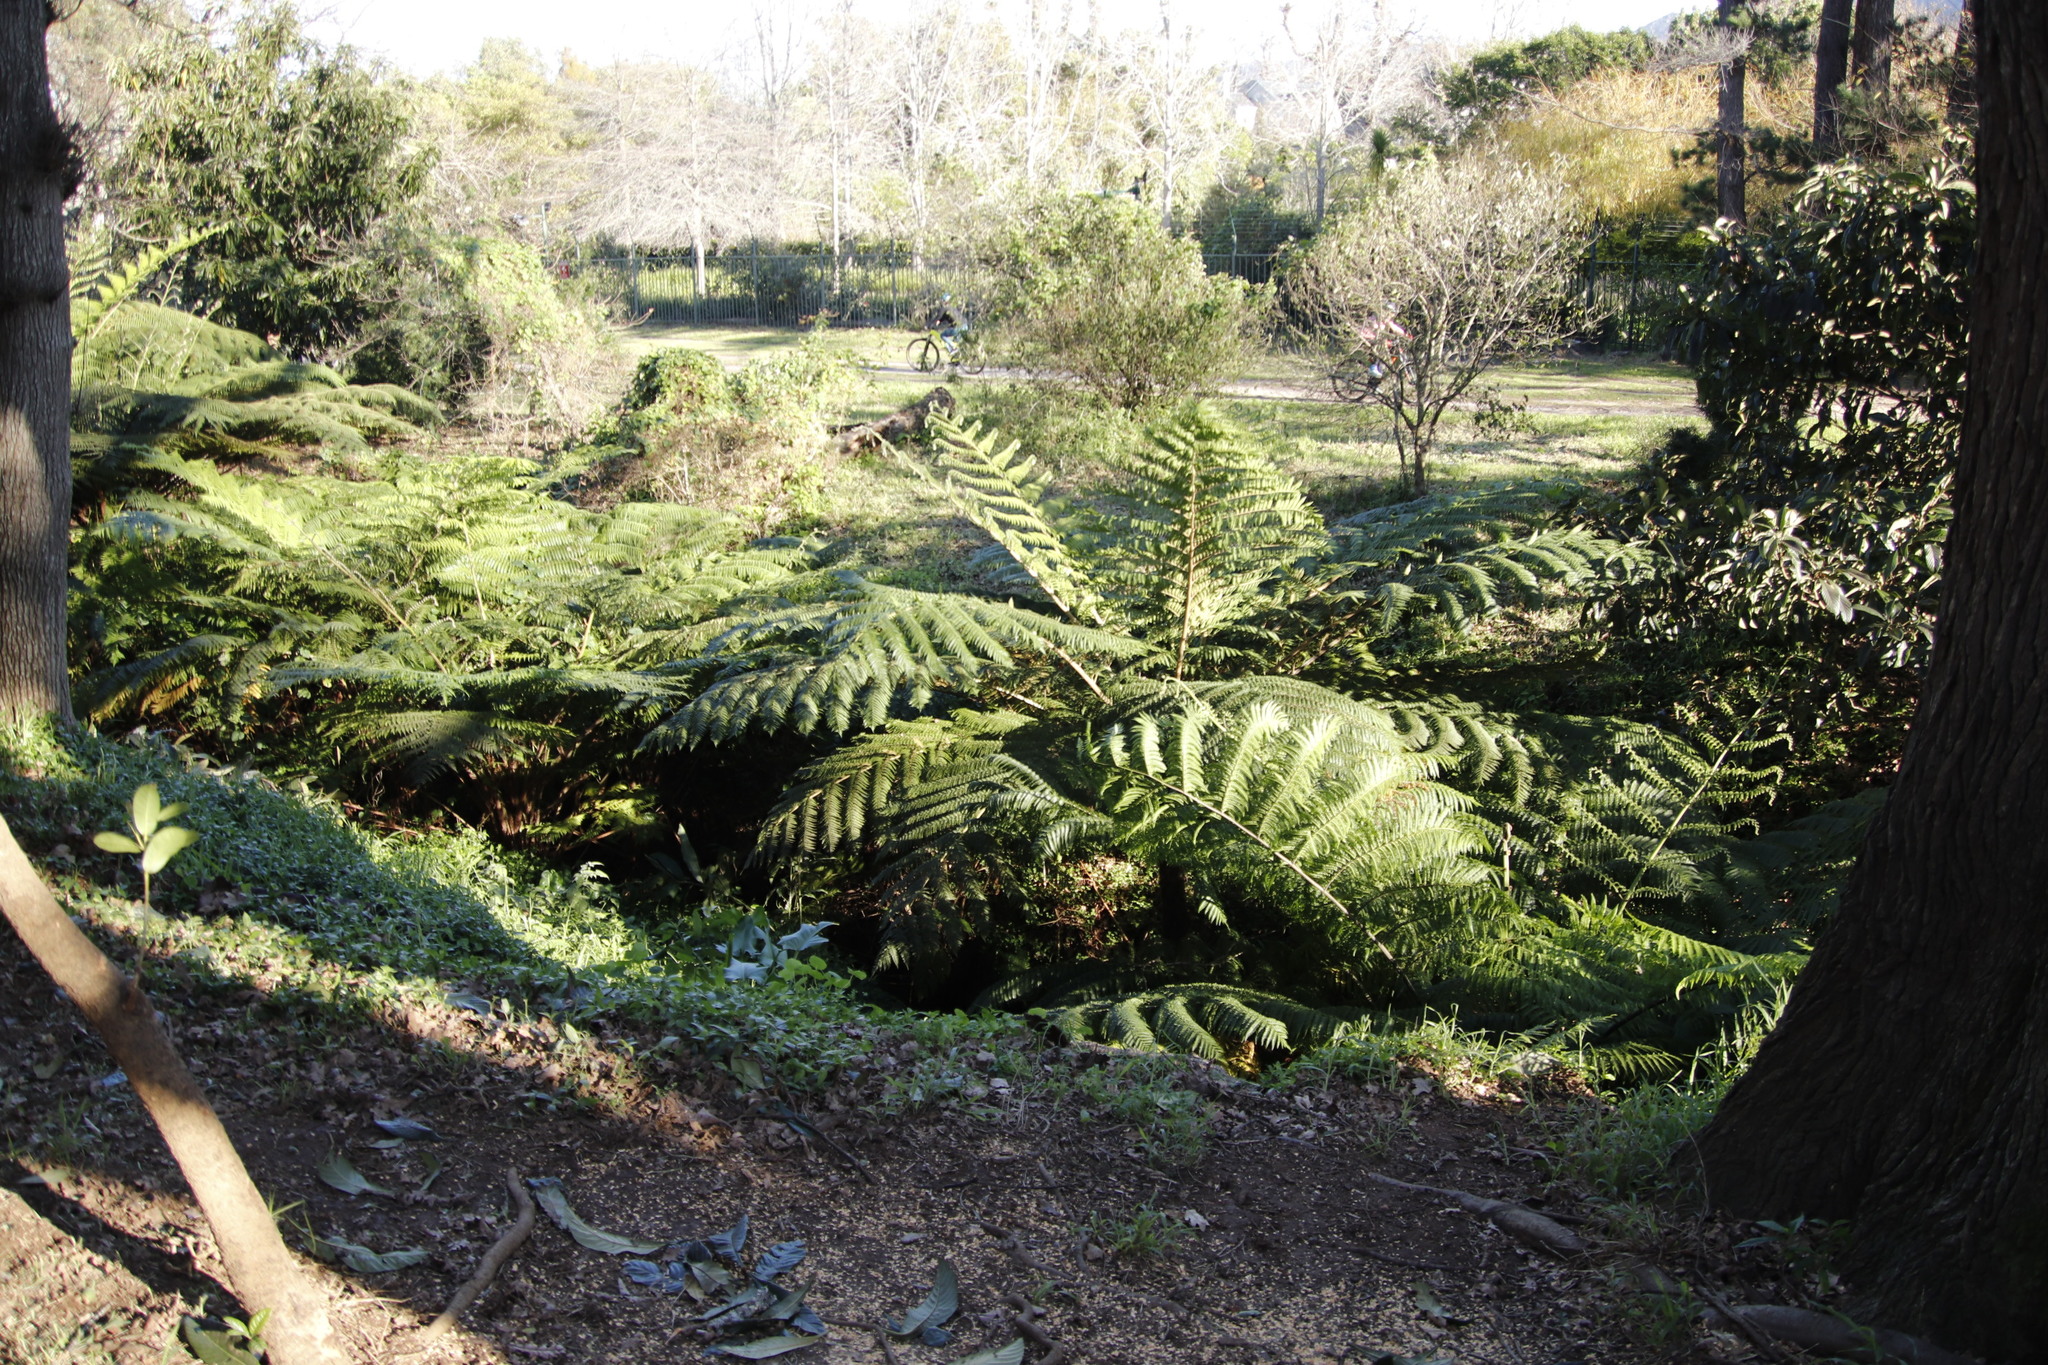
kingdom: Plantae
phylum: Tracheophyta
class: Polypodiopsida
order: Cyatheales
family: Cyatheaceae
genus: Sphaeropteris
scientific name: Sphaeropteris cooperi
